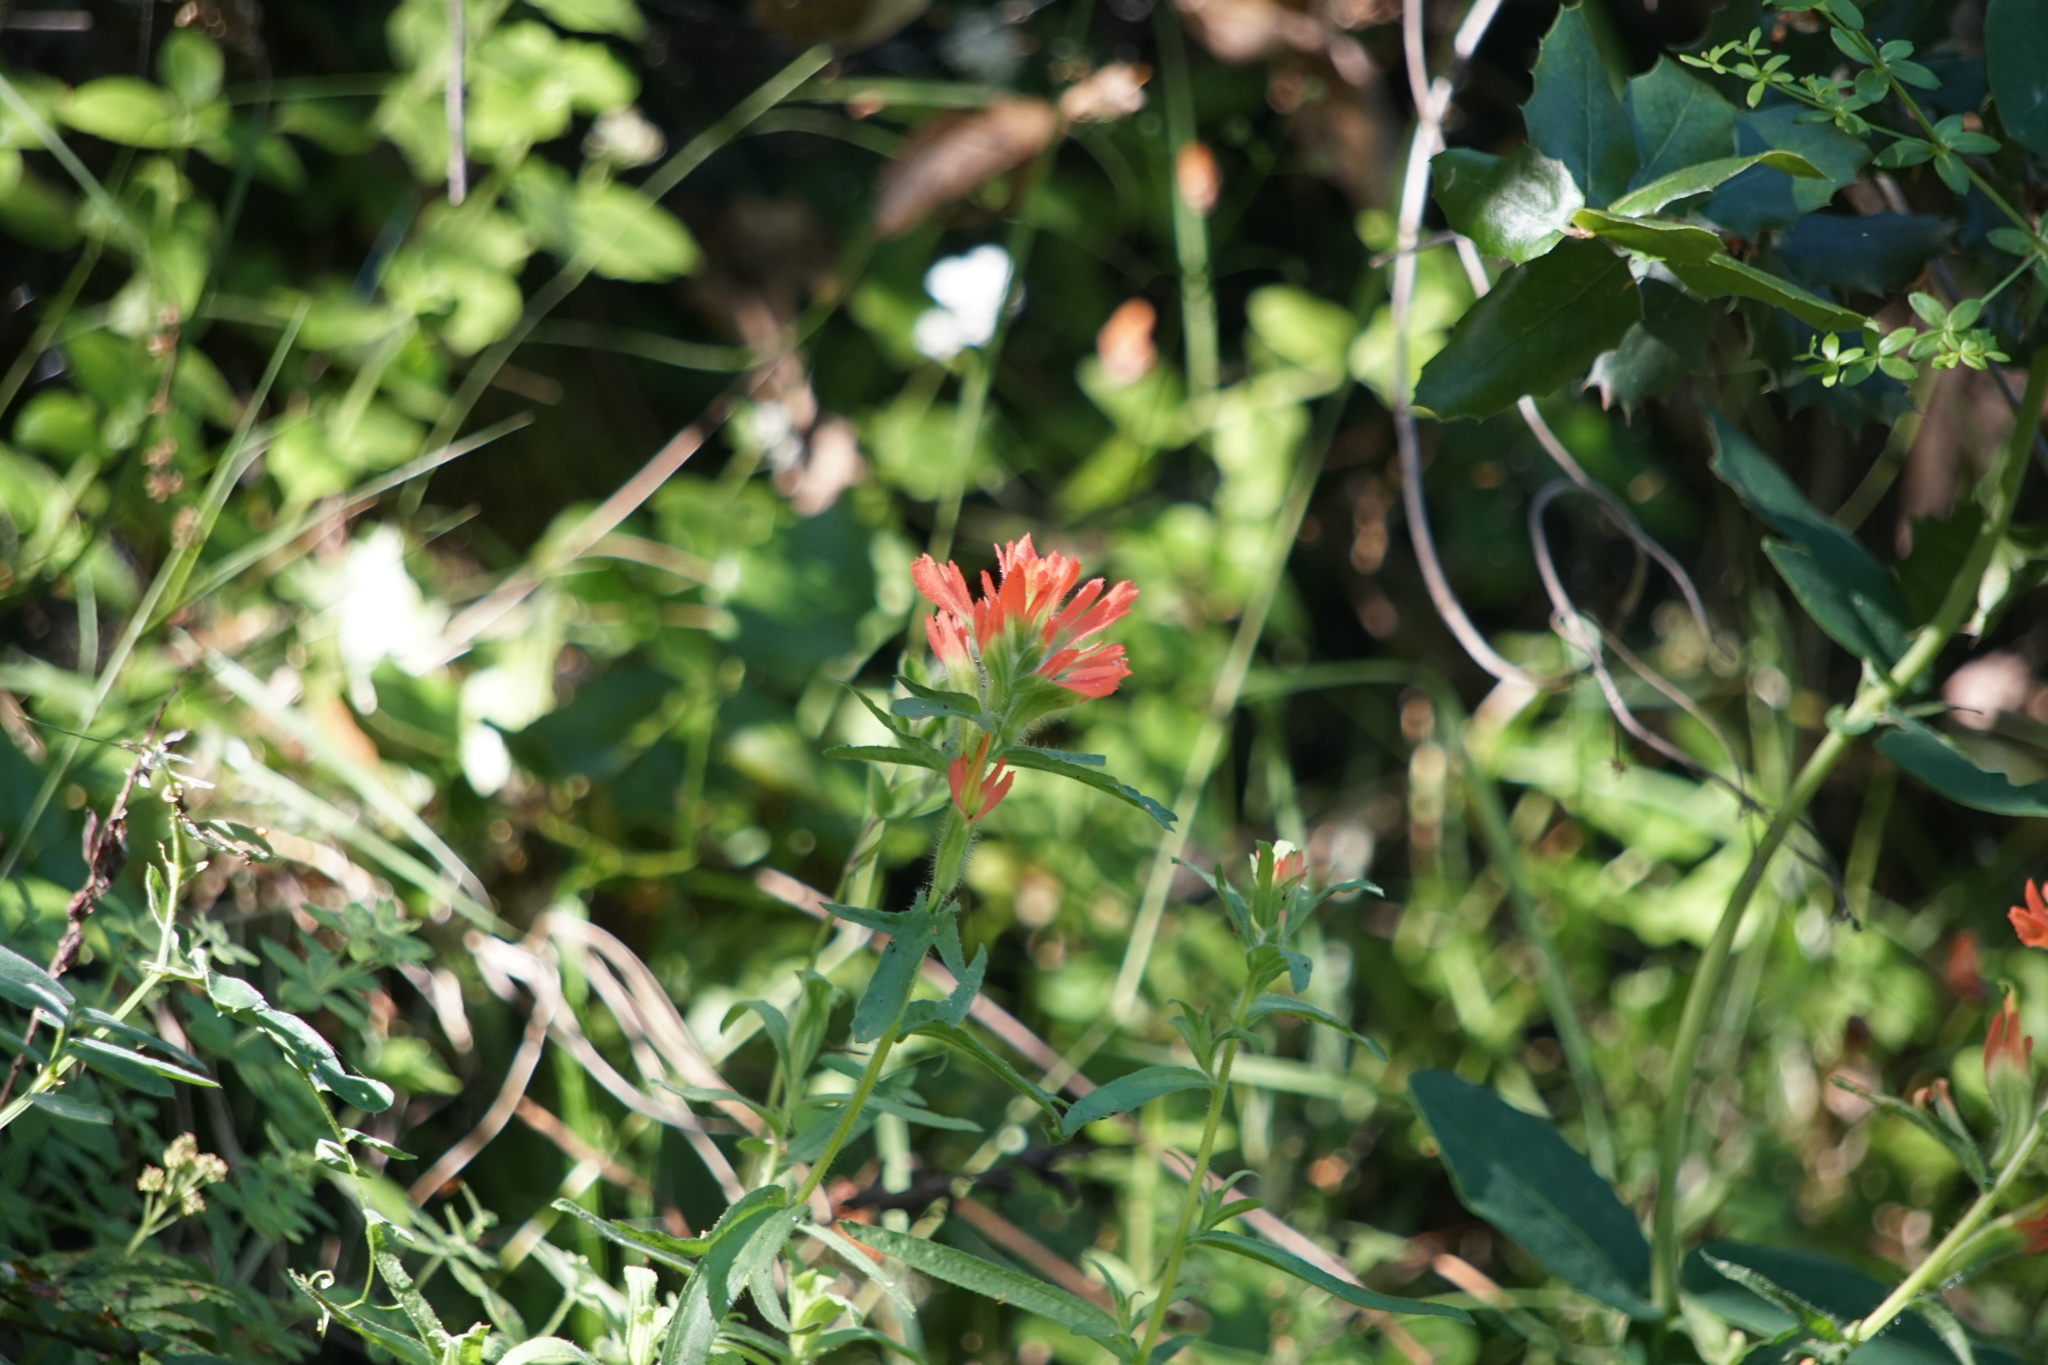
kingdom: Plantae
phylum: Tracheophyta
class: Magnoliopsida
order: Lamiales
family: Orobanchaceae
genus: Castilleja
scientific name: Castilleja affinis
